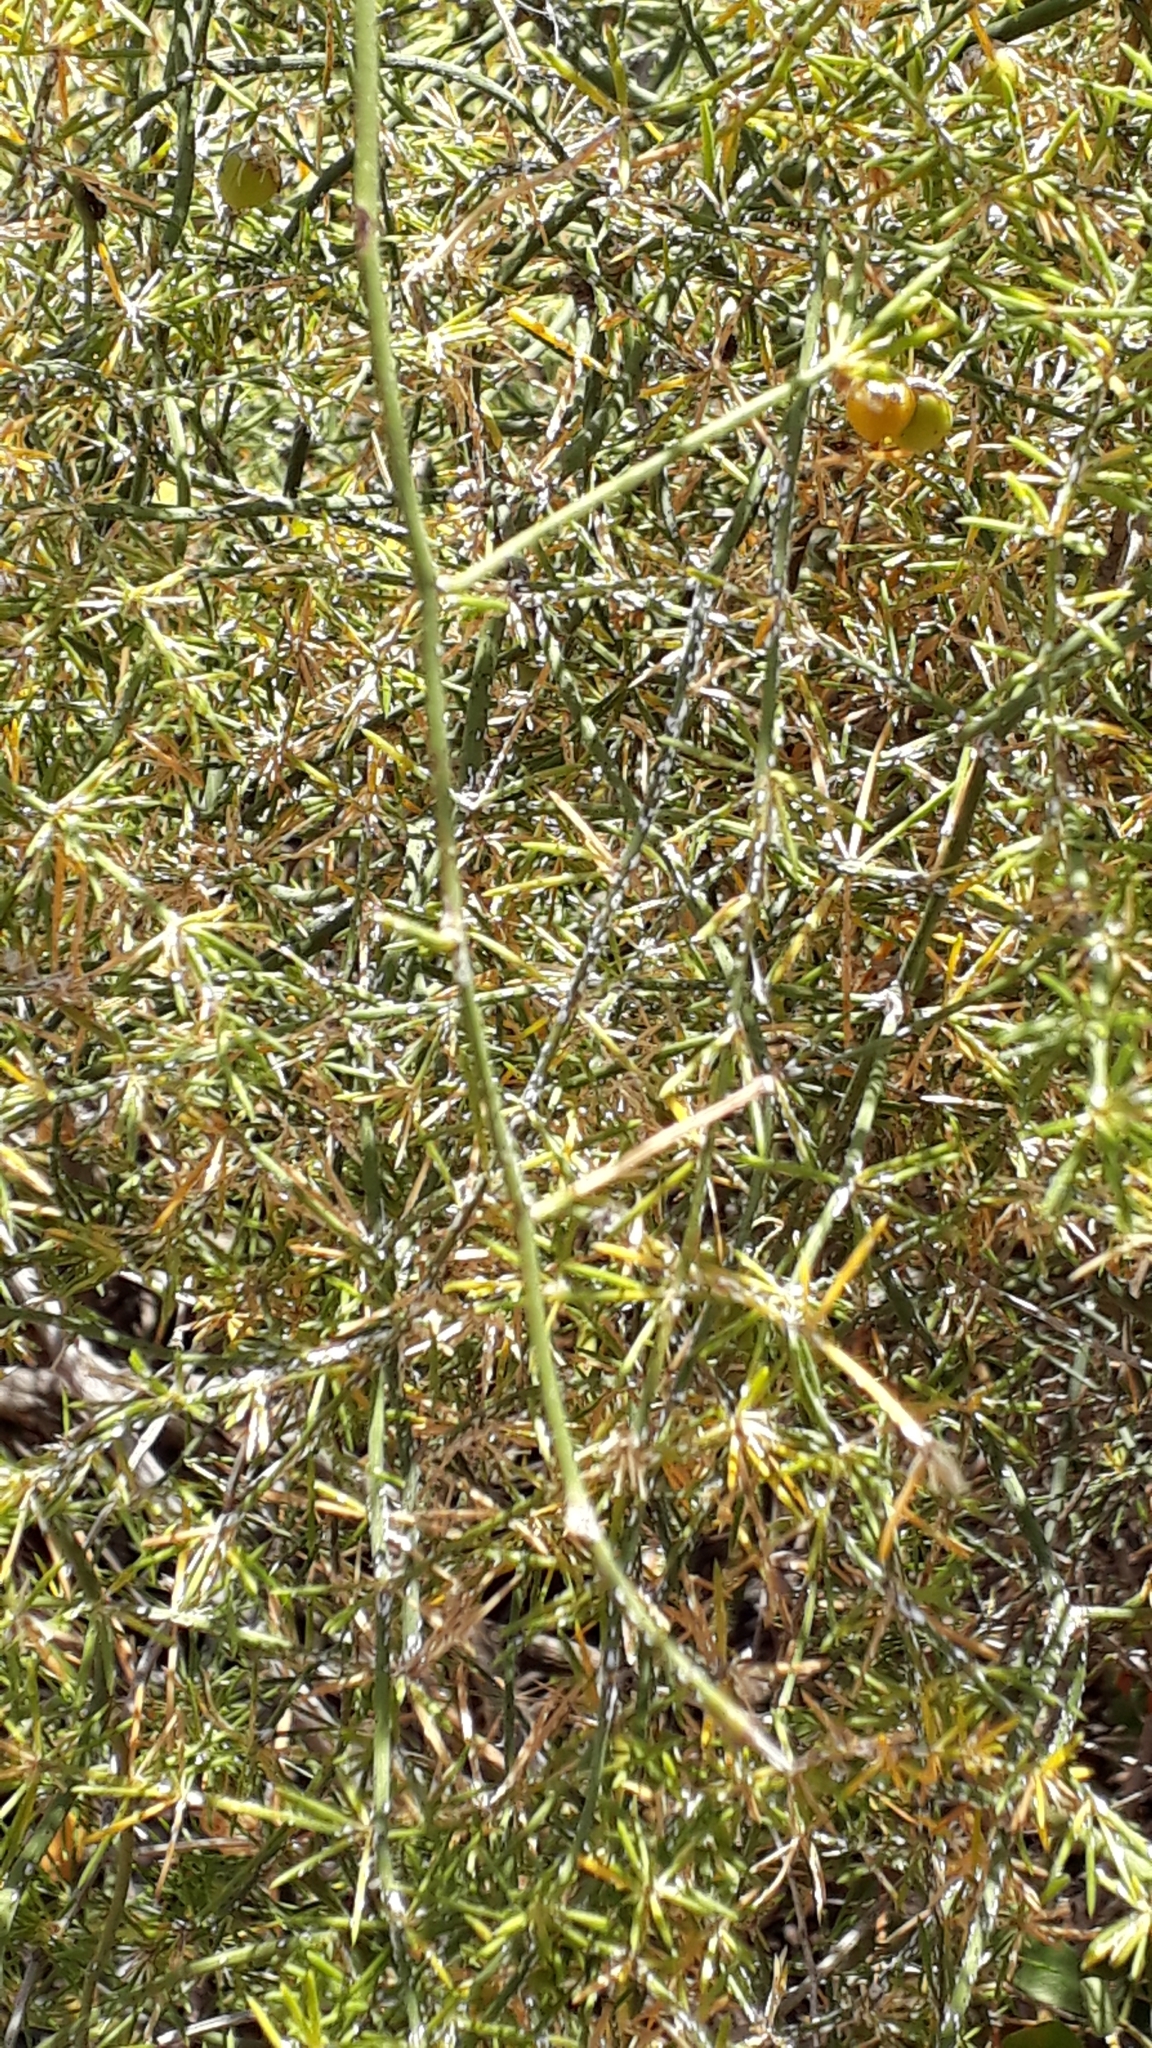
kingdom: Plantae
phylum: Tracheophyta
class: Liliopsida
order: Asparagales
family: Asparagaceae
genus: Asparagus
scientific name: Asparagus umbellatus
